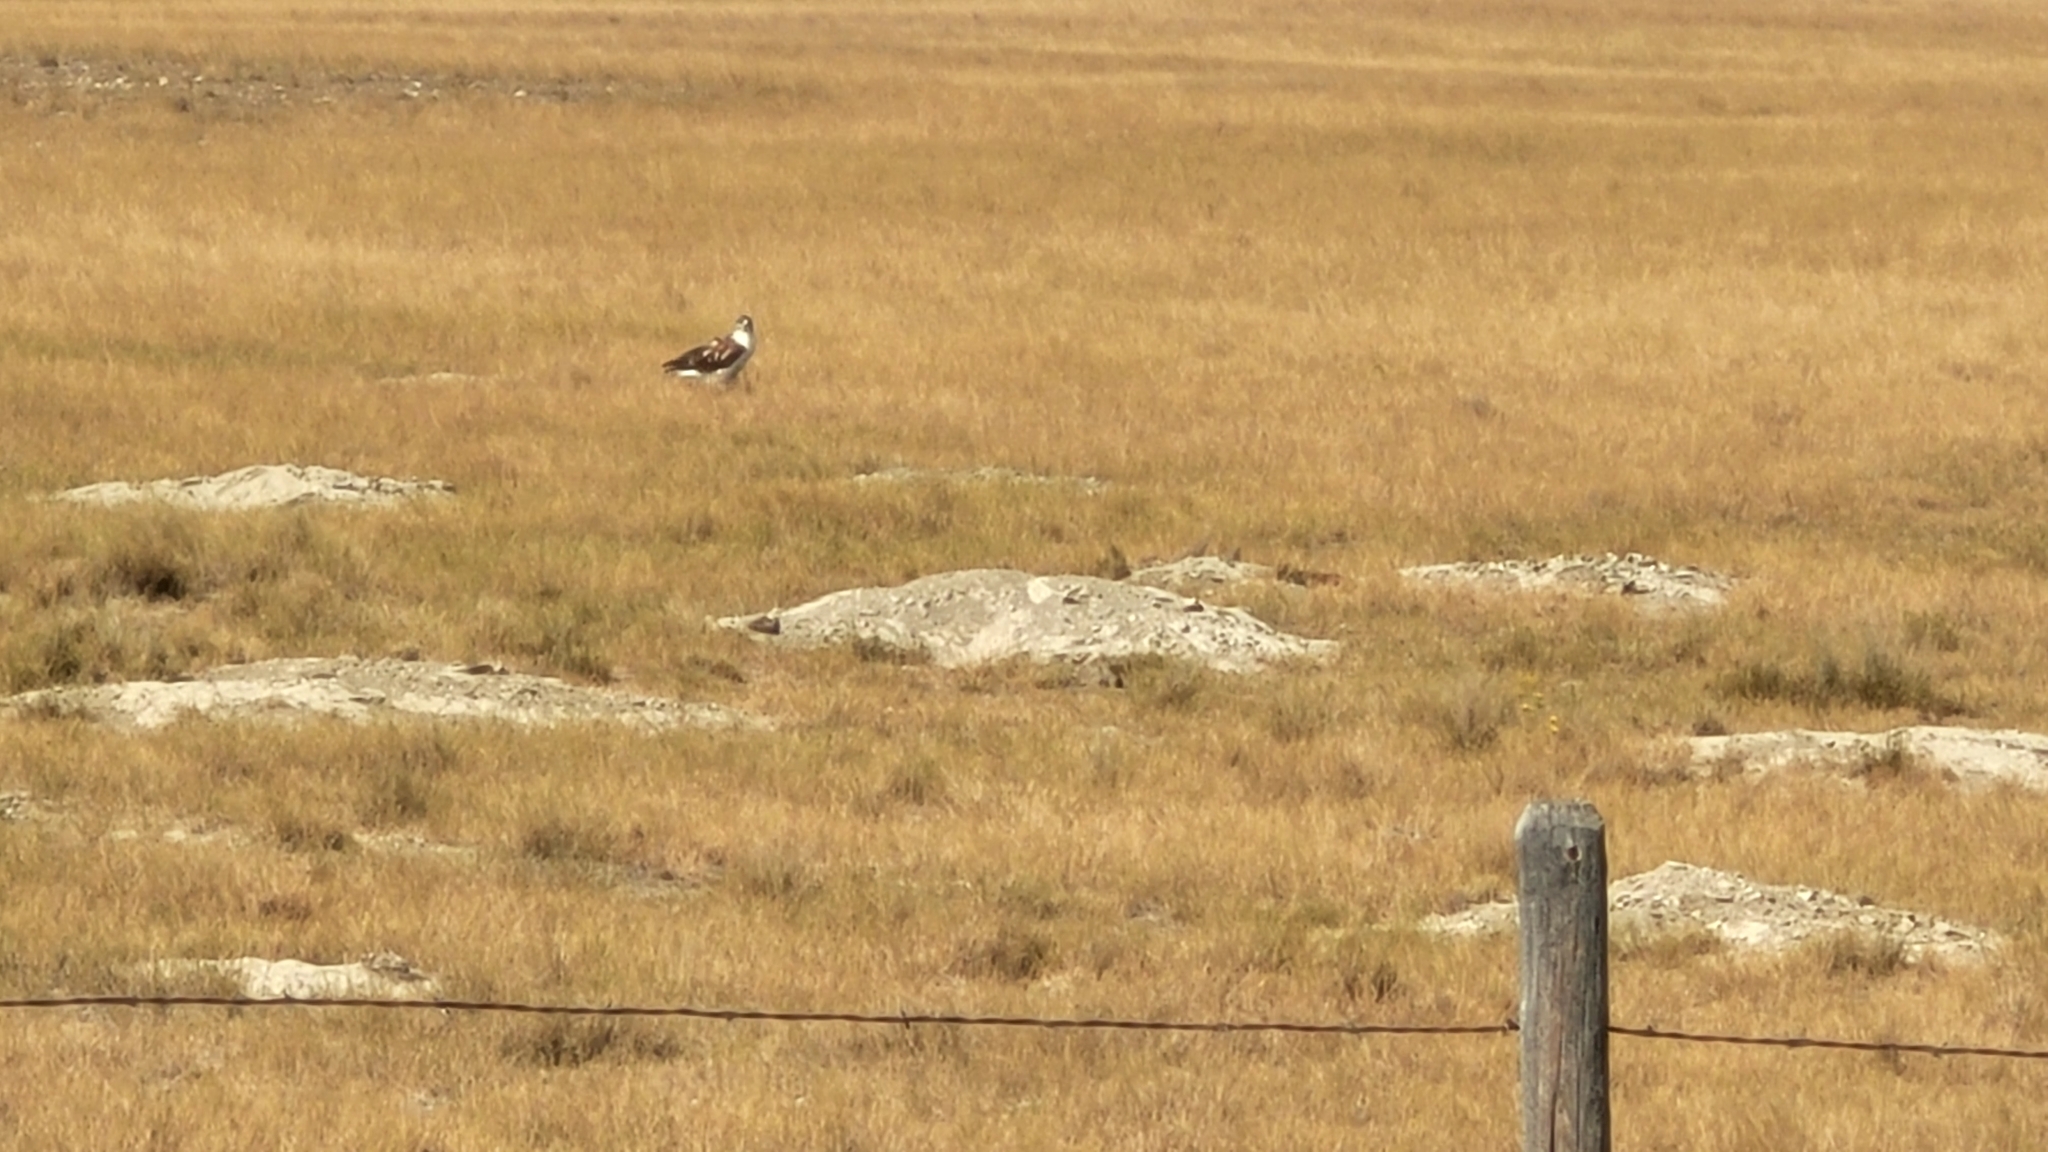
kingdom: Animalia
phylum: Chordata
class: Aves
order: Accipitriformes
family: Accipitridae
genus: Buteo
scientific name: Buteo regalis
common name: Ferruginous hawk
